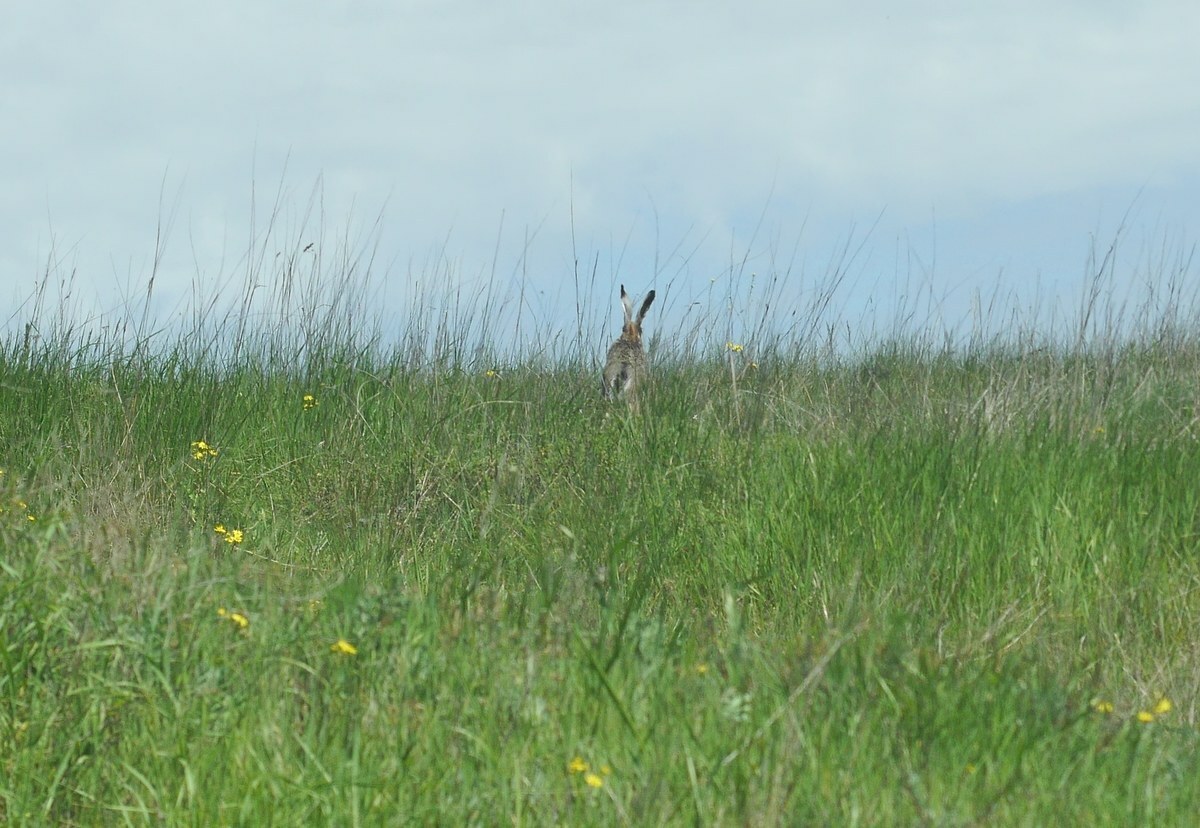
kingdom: Animalia
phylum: Chordata
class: Mammalia
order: Lagomorpha
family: Leporidae
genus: Lepus
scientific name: Lepus europaeus
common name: European hare
